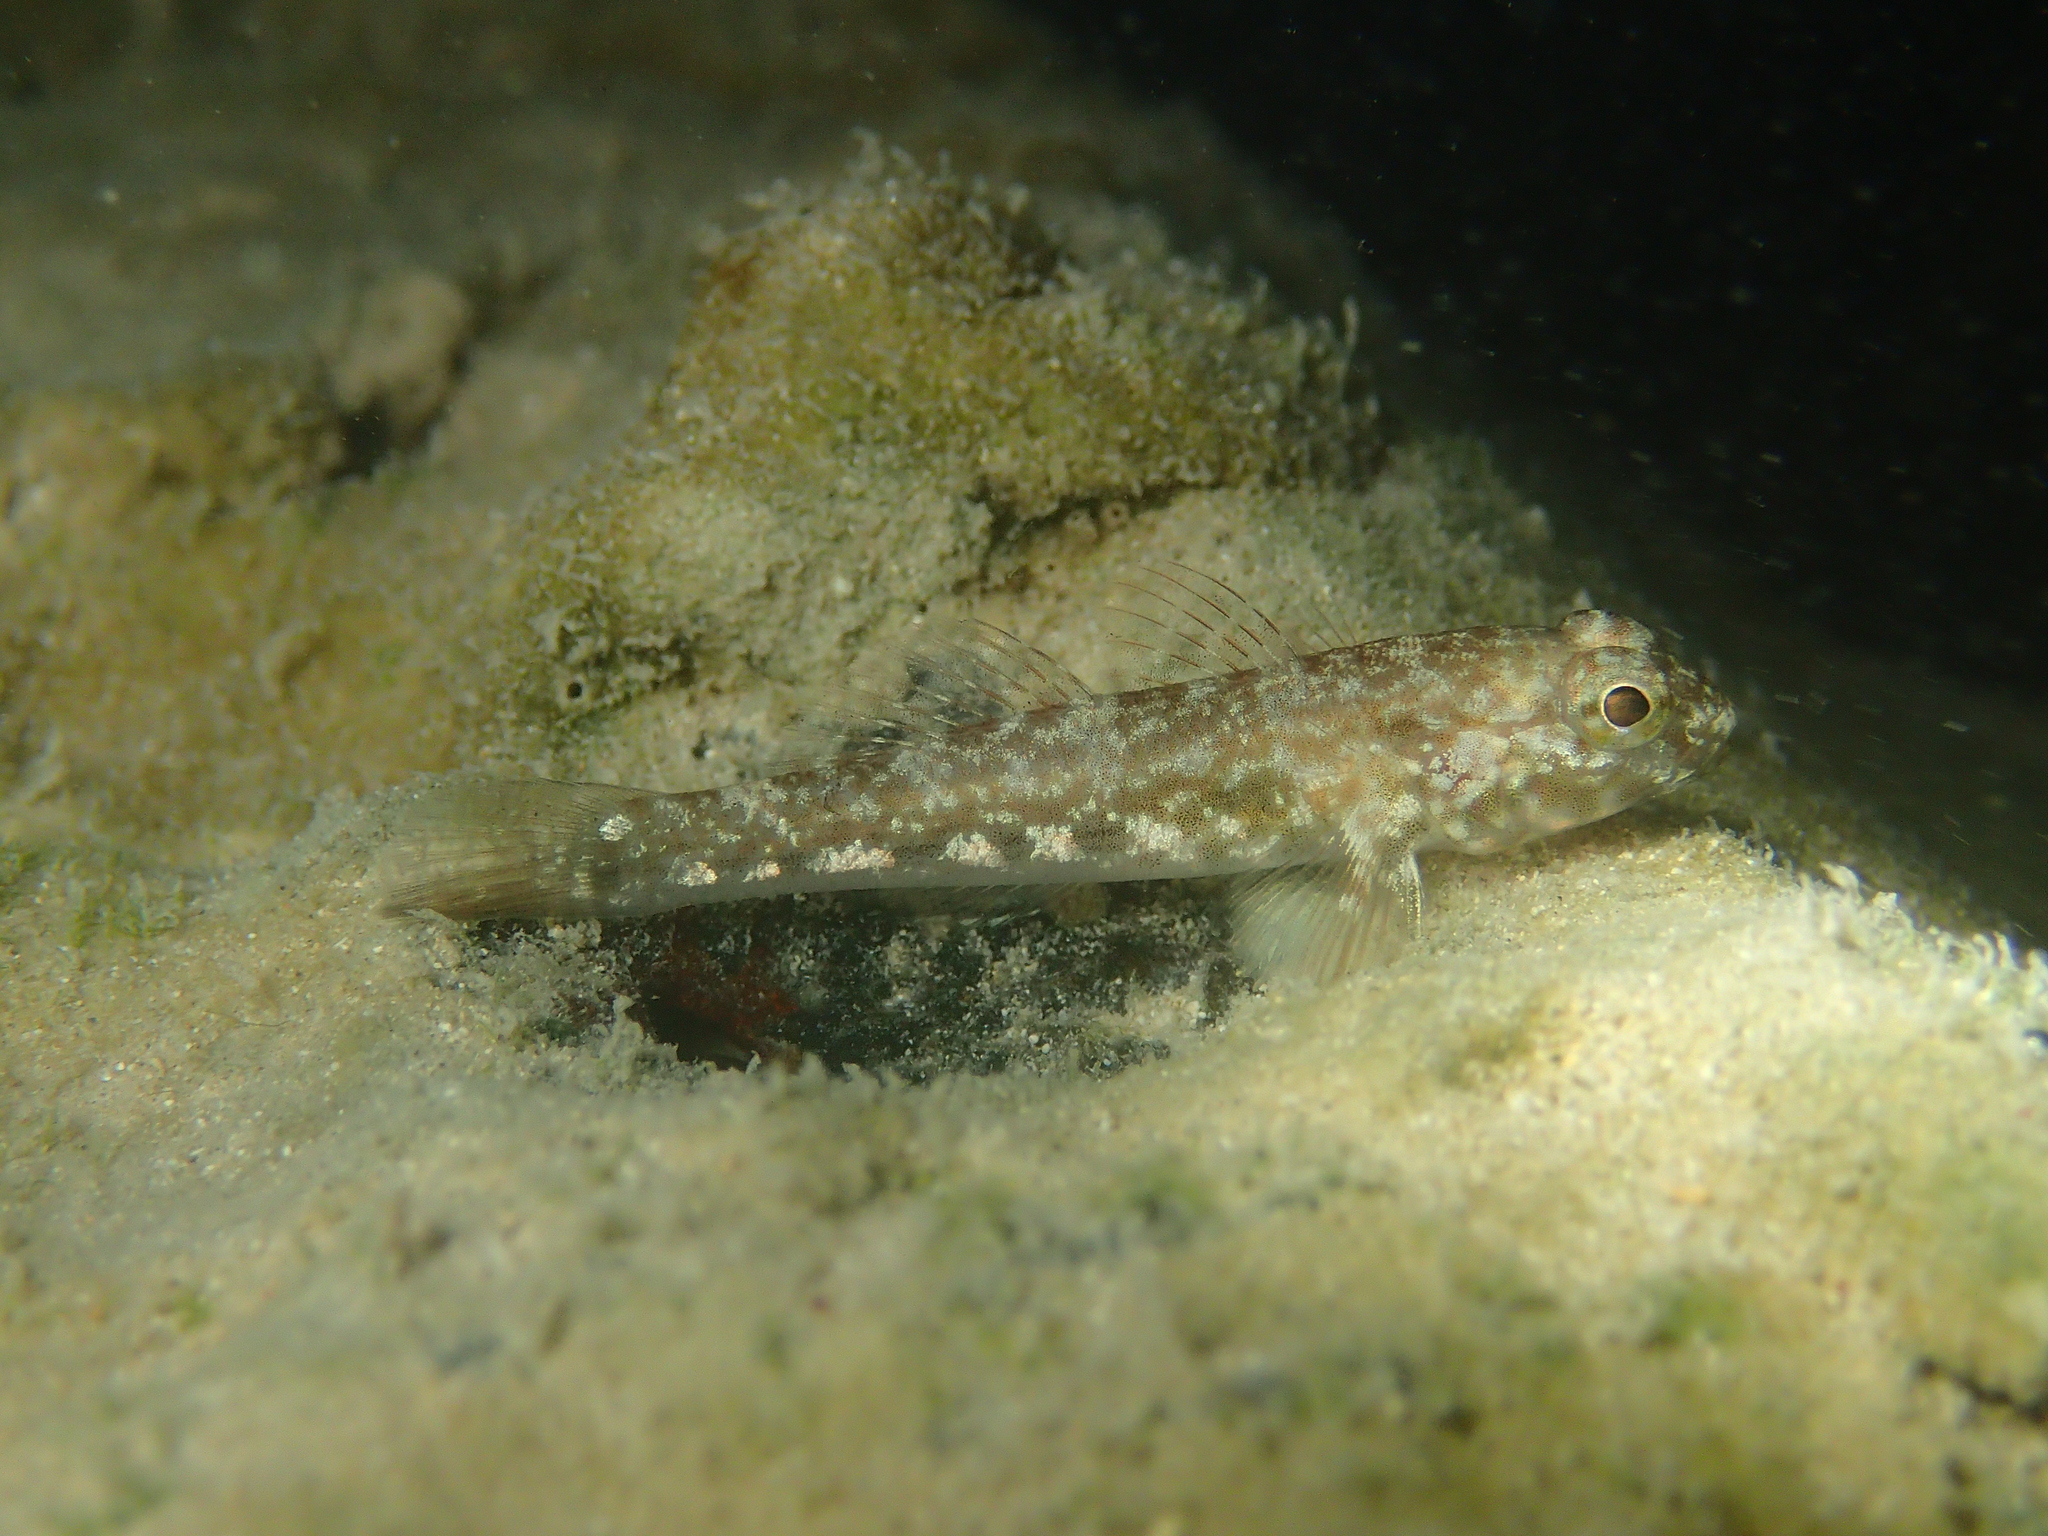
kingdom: Animalia
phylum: Chordata
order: Perciformes
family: Gobiidae
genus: Bathygobius
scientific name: Bathygobius lineatus
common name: Southern frillfin
